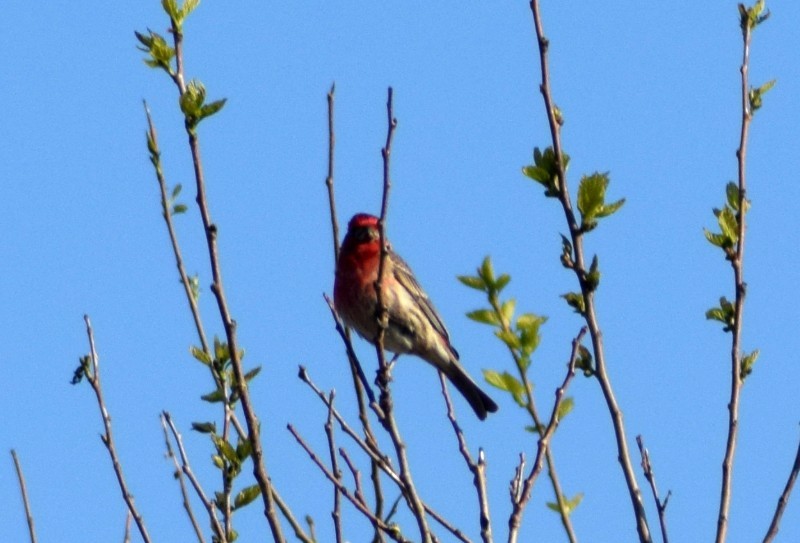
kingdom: Animalia
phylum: Chordata
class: Aves
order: Passeriformes
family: Fringillidae
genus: Haemorhous
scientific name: Haemorhous mexicanus
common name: House finch
